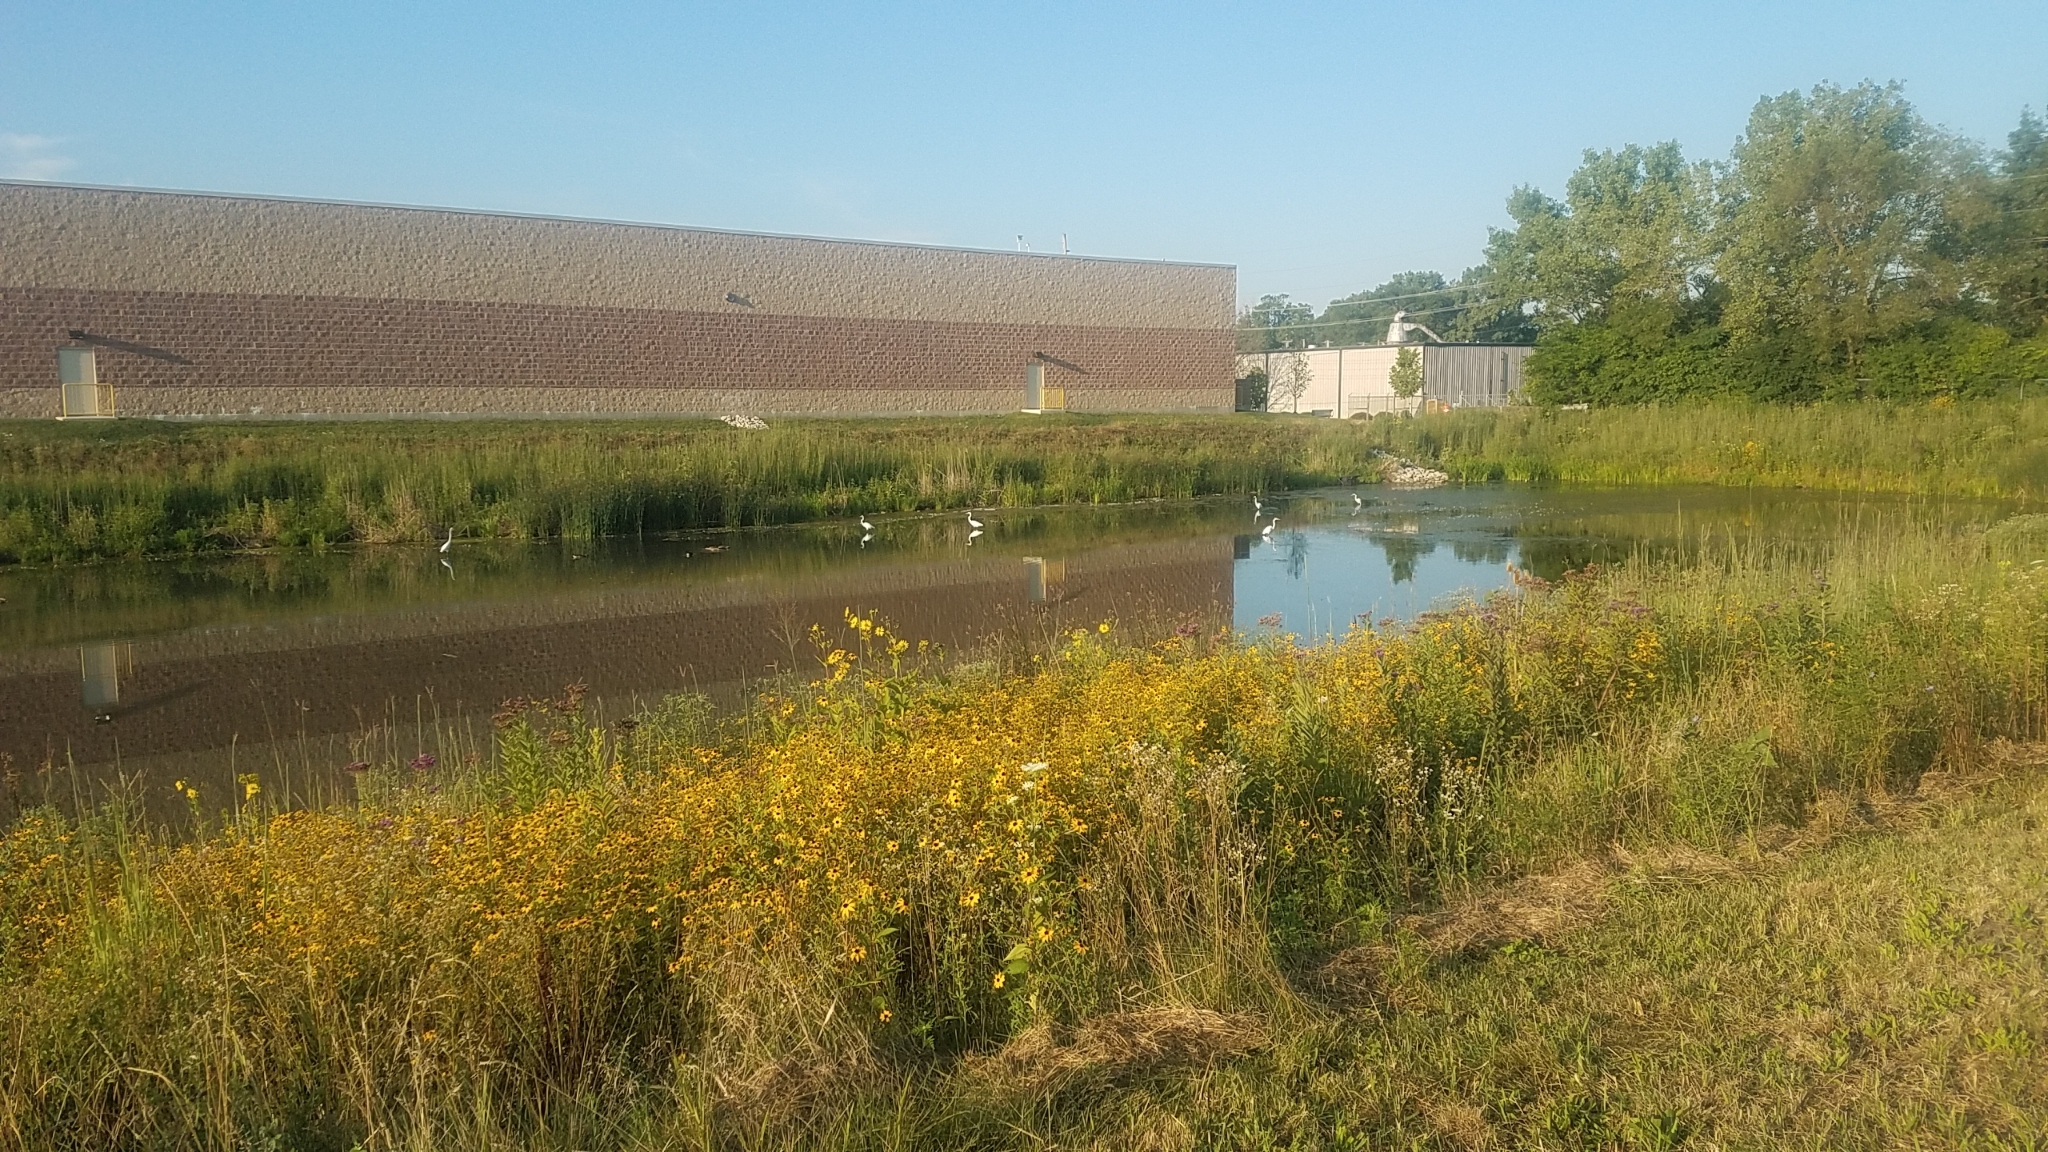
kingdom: Animalia
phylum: Chordata
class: Aves
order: Pelecaniformes
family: Ardeidae
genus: Ardea
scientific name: Ardea alba
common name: Great egret
